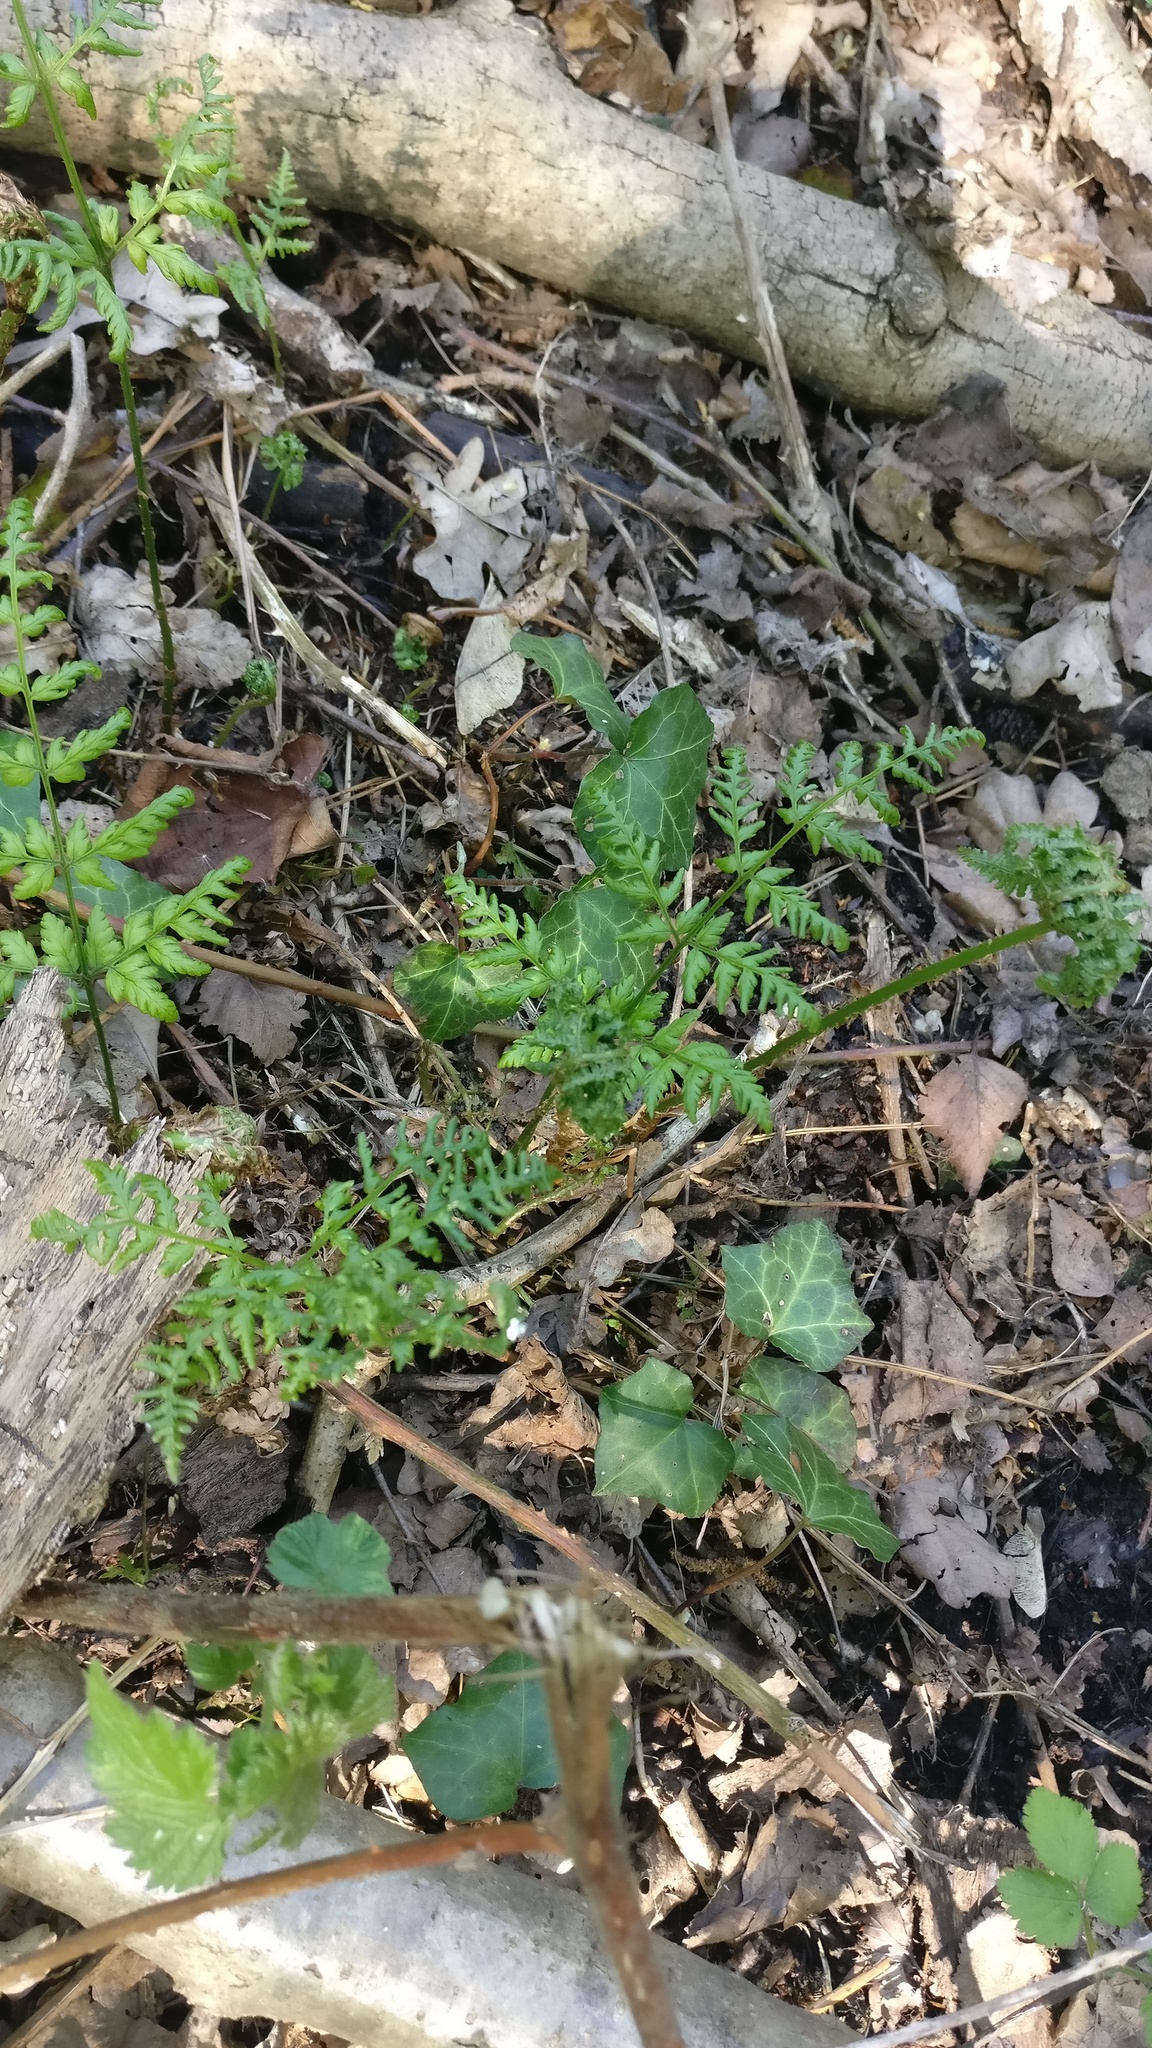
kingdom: Plantae
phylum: Tracheophyta
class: Polypodiopsida
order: Polypodiales
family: Dryopteridaceae
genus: Dryopteris
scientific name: Dryopteris dilatata
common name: Broad buckler-fern
